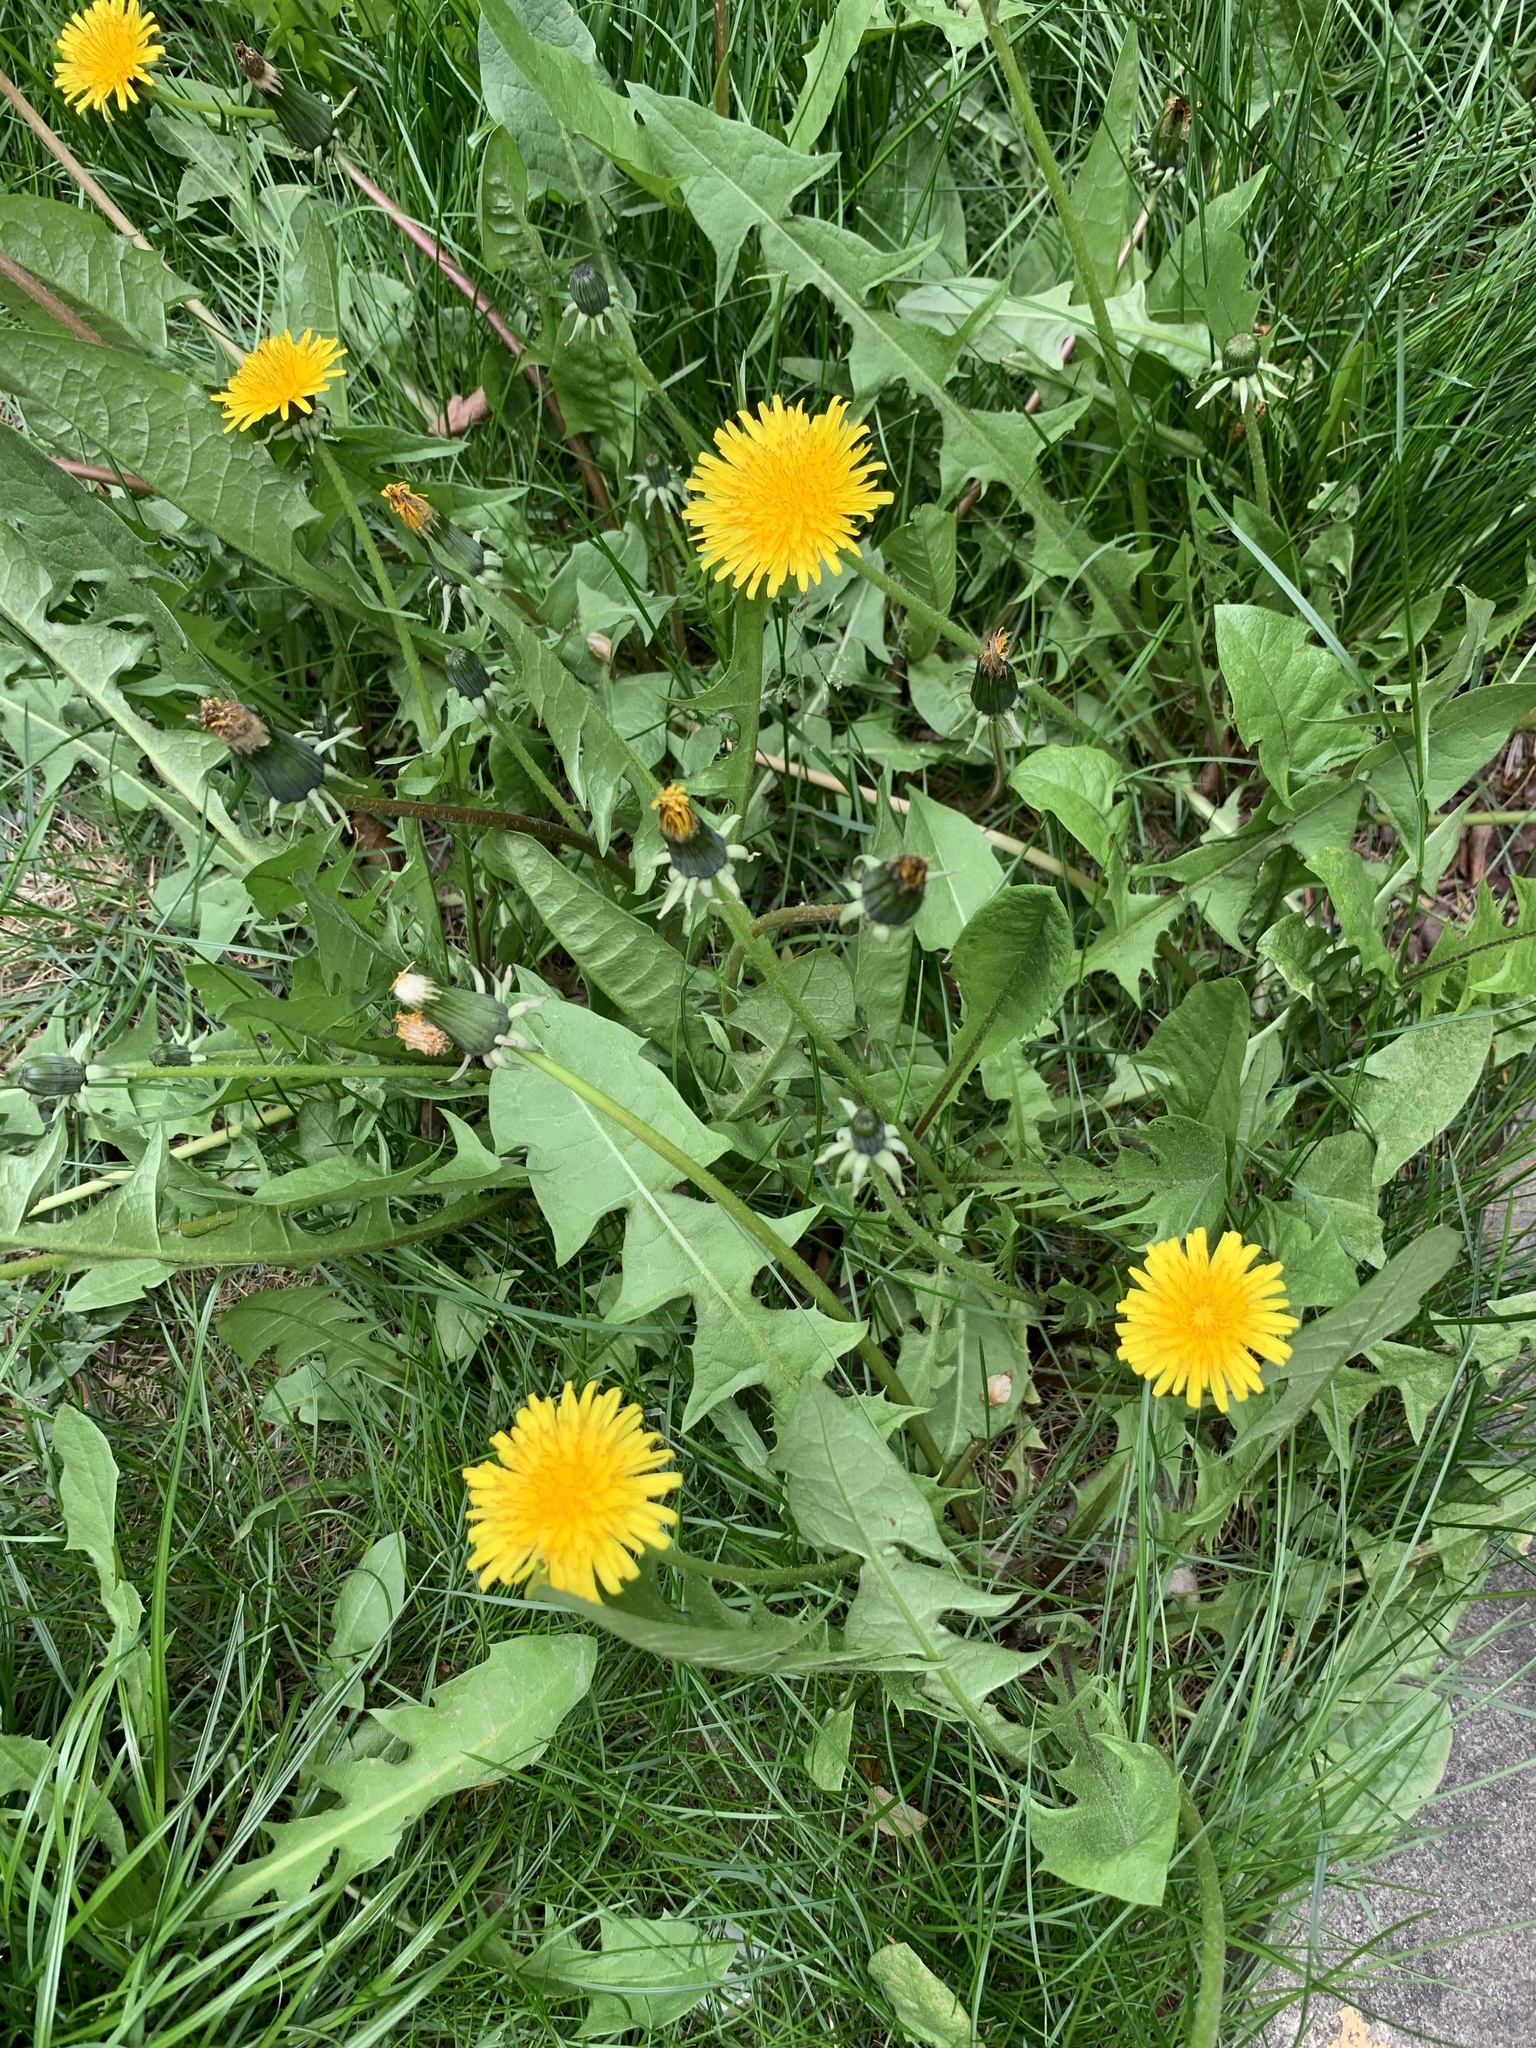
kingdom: Plantae
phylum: Tracheophyta
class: Magnoliopsida
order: Asterales
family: Asteraceae
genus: Taraxacum
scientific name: Taraxacum officinale
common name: Common dandelion
